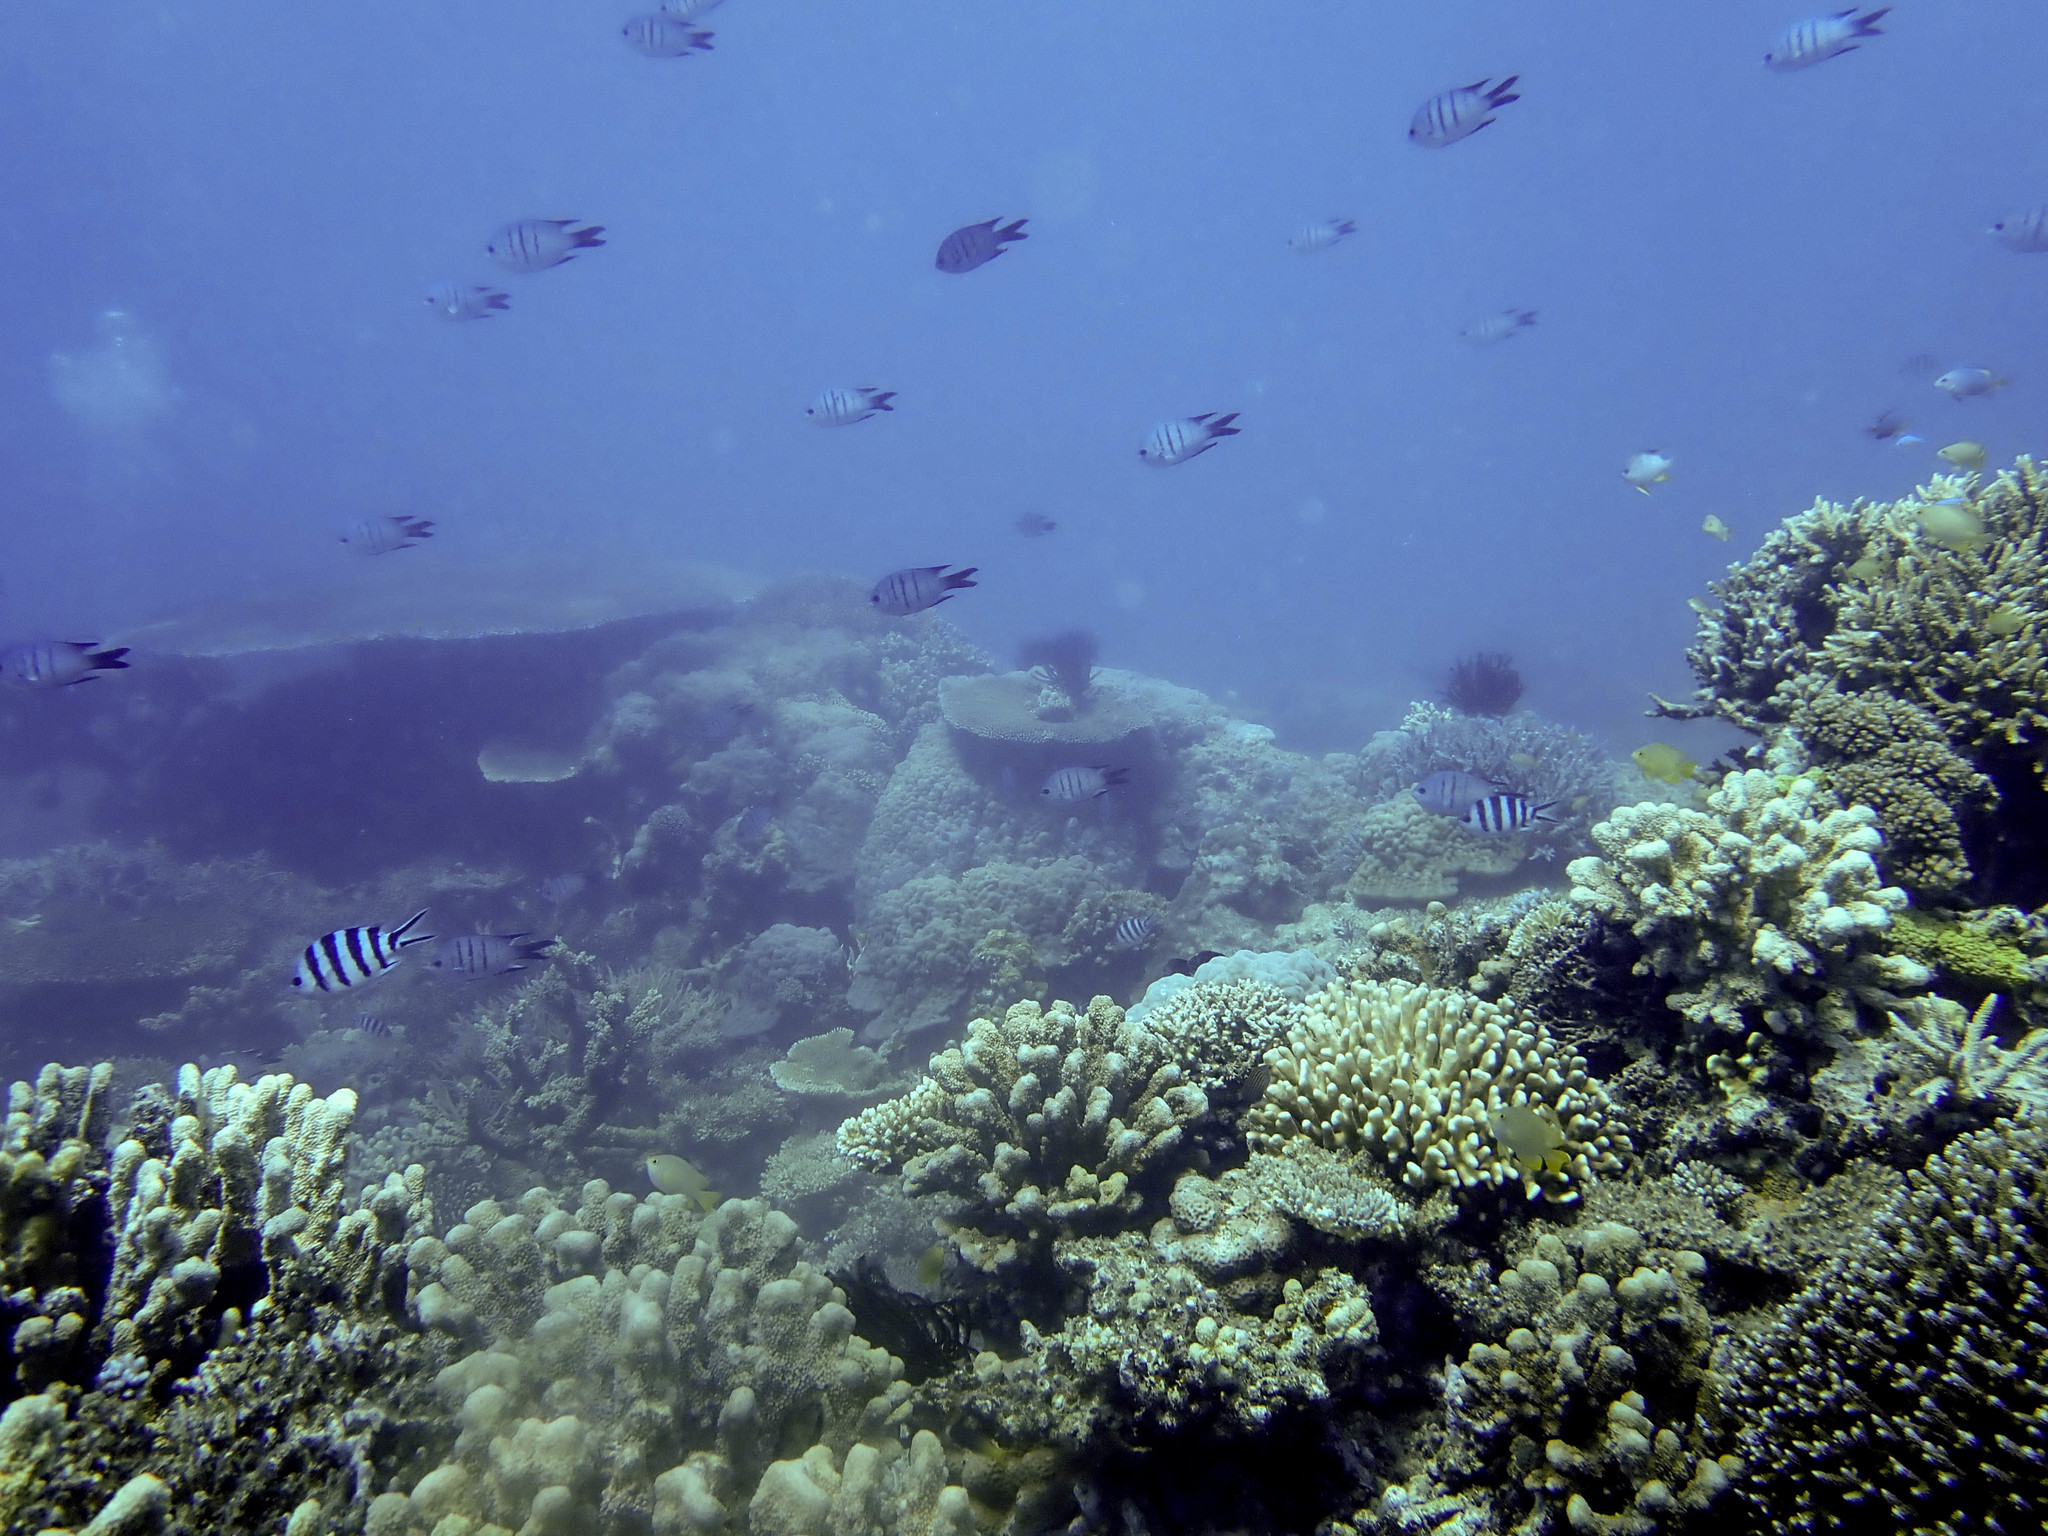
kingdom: Animalia
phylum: Chordata
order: Perciformes
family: Pomacentridae
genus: Abudefduf
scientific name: Abudefduf whitleyi
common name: Whitley's seargent
